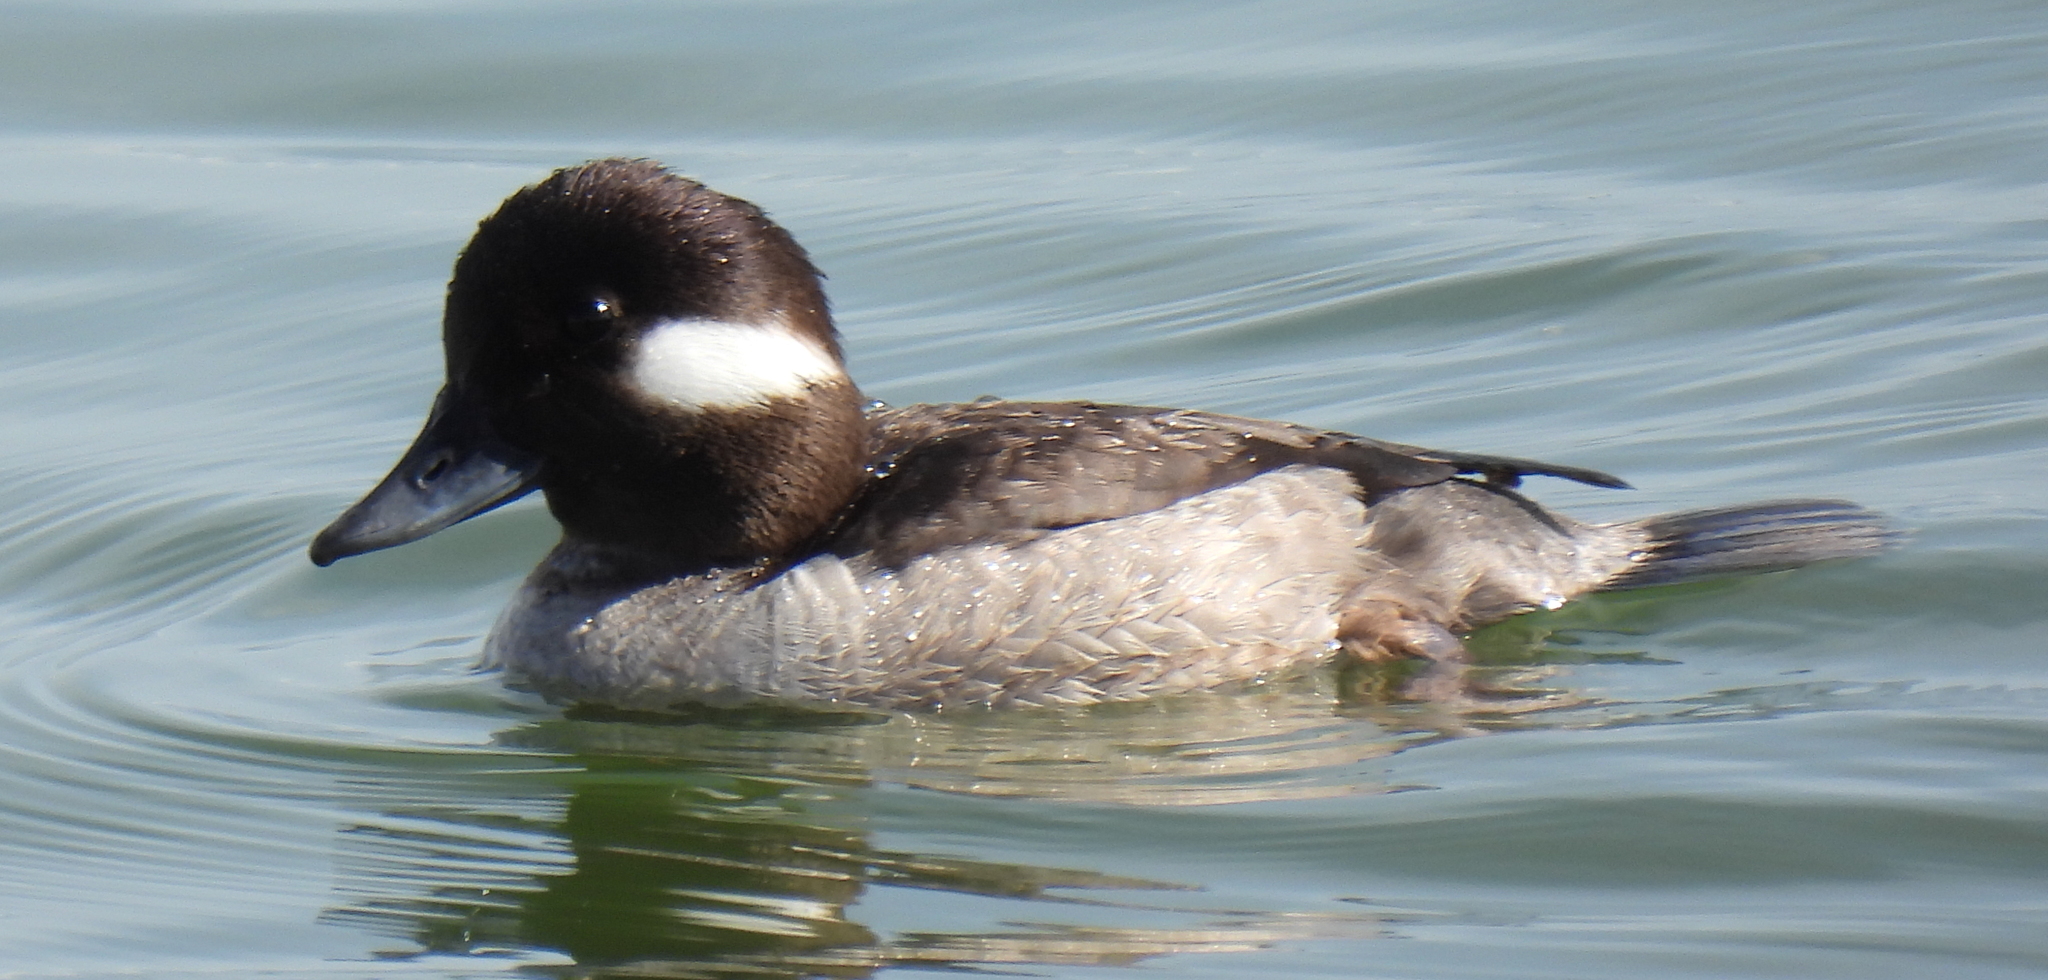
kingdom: Animalia
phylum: Chordata
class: Aves
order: Anseriformes
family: Anatidae
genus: Bucephala
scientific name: Bucephala albeola
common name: Bufflehead
